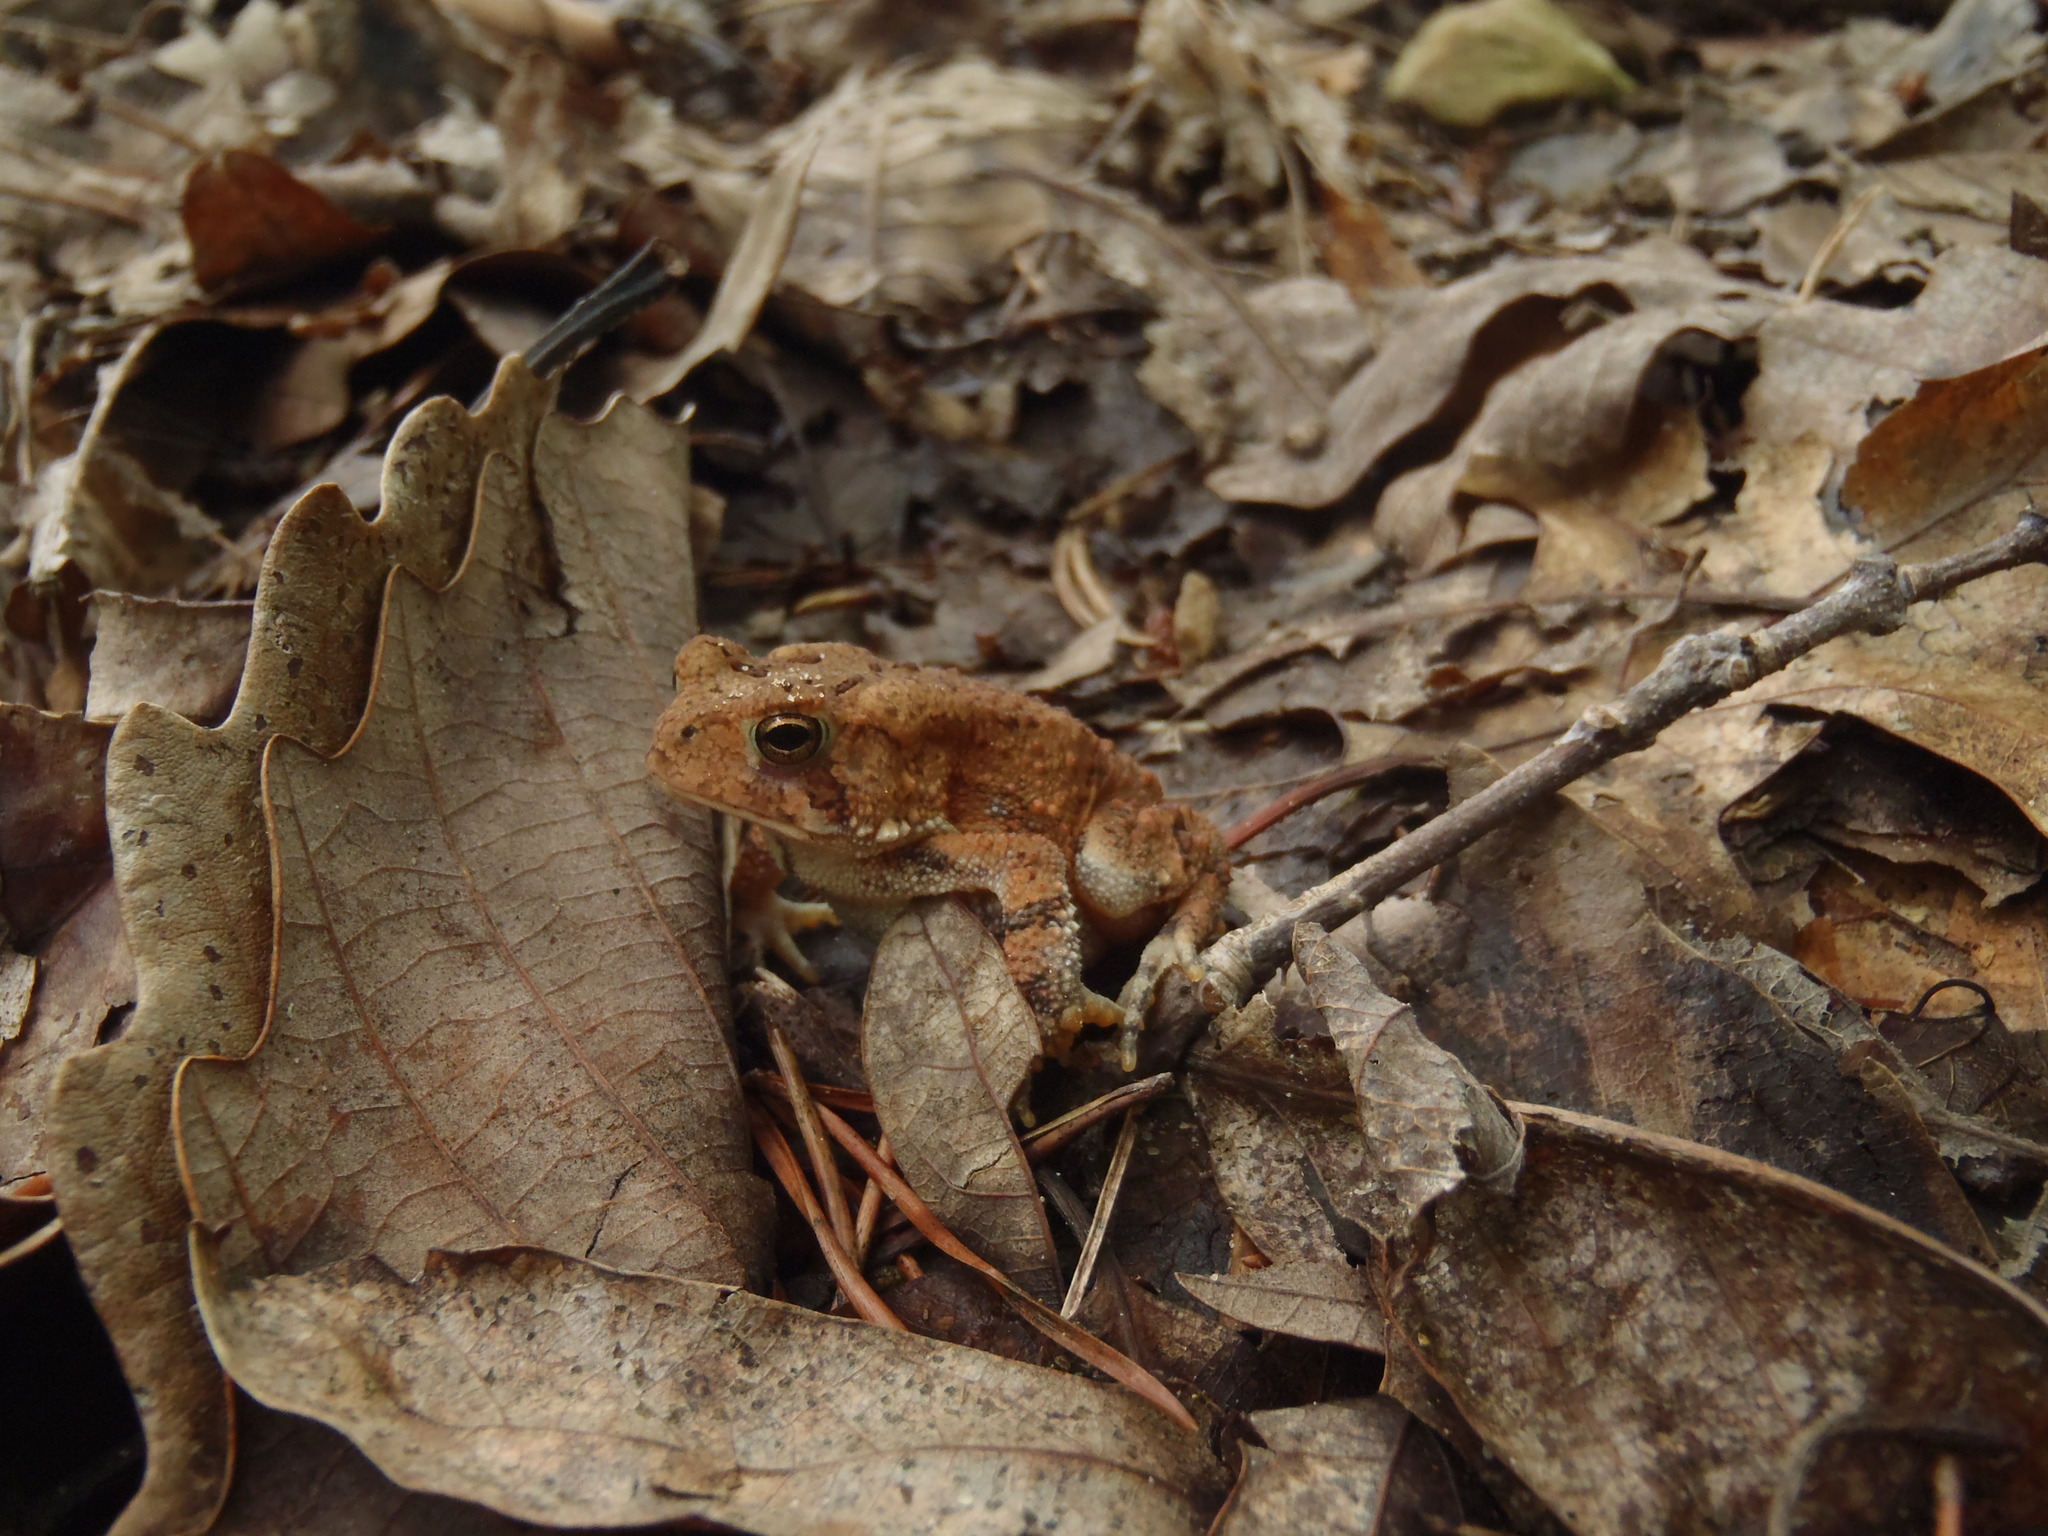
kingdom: Animalia
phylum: Chordata
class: Amphibia
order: Anura
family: Bufonidae
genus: Anaxyrus
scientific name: Anaxyrus fowleri
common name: Fowler's toad
